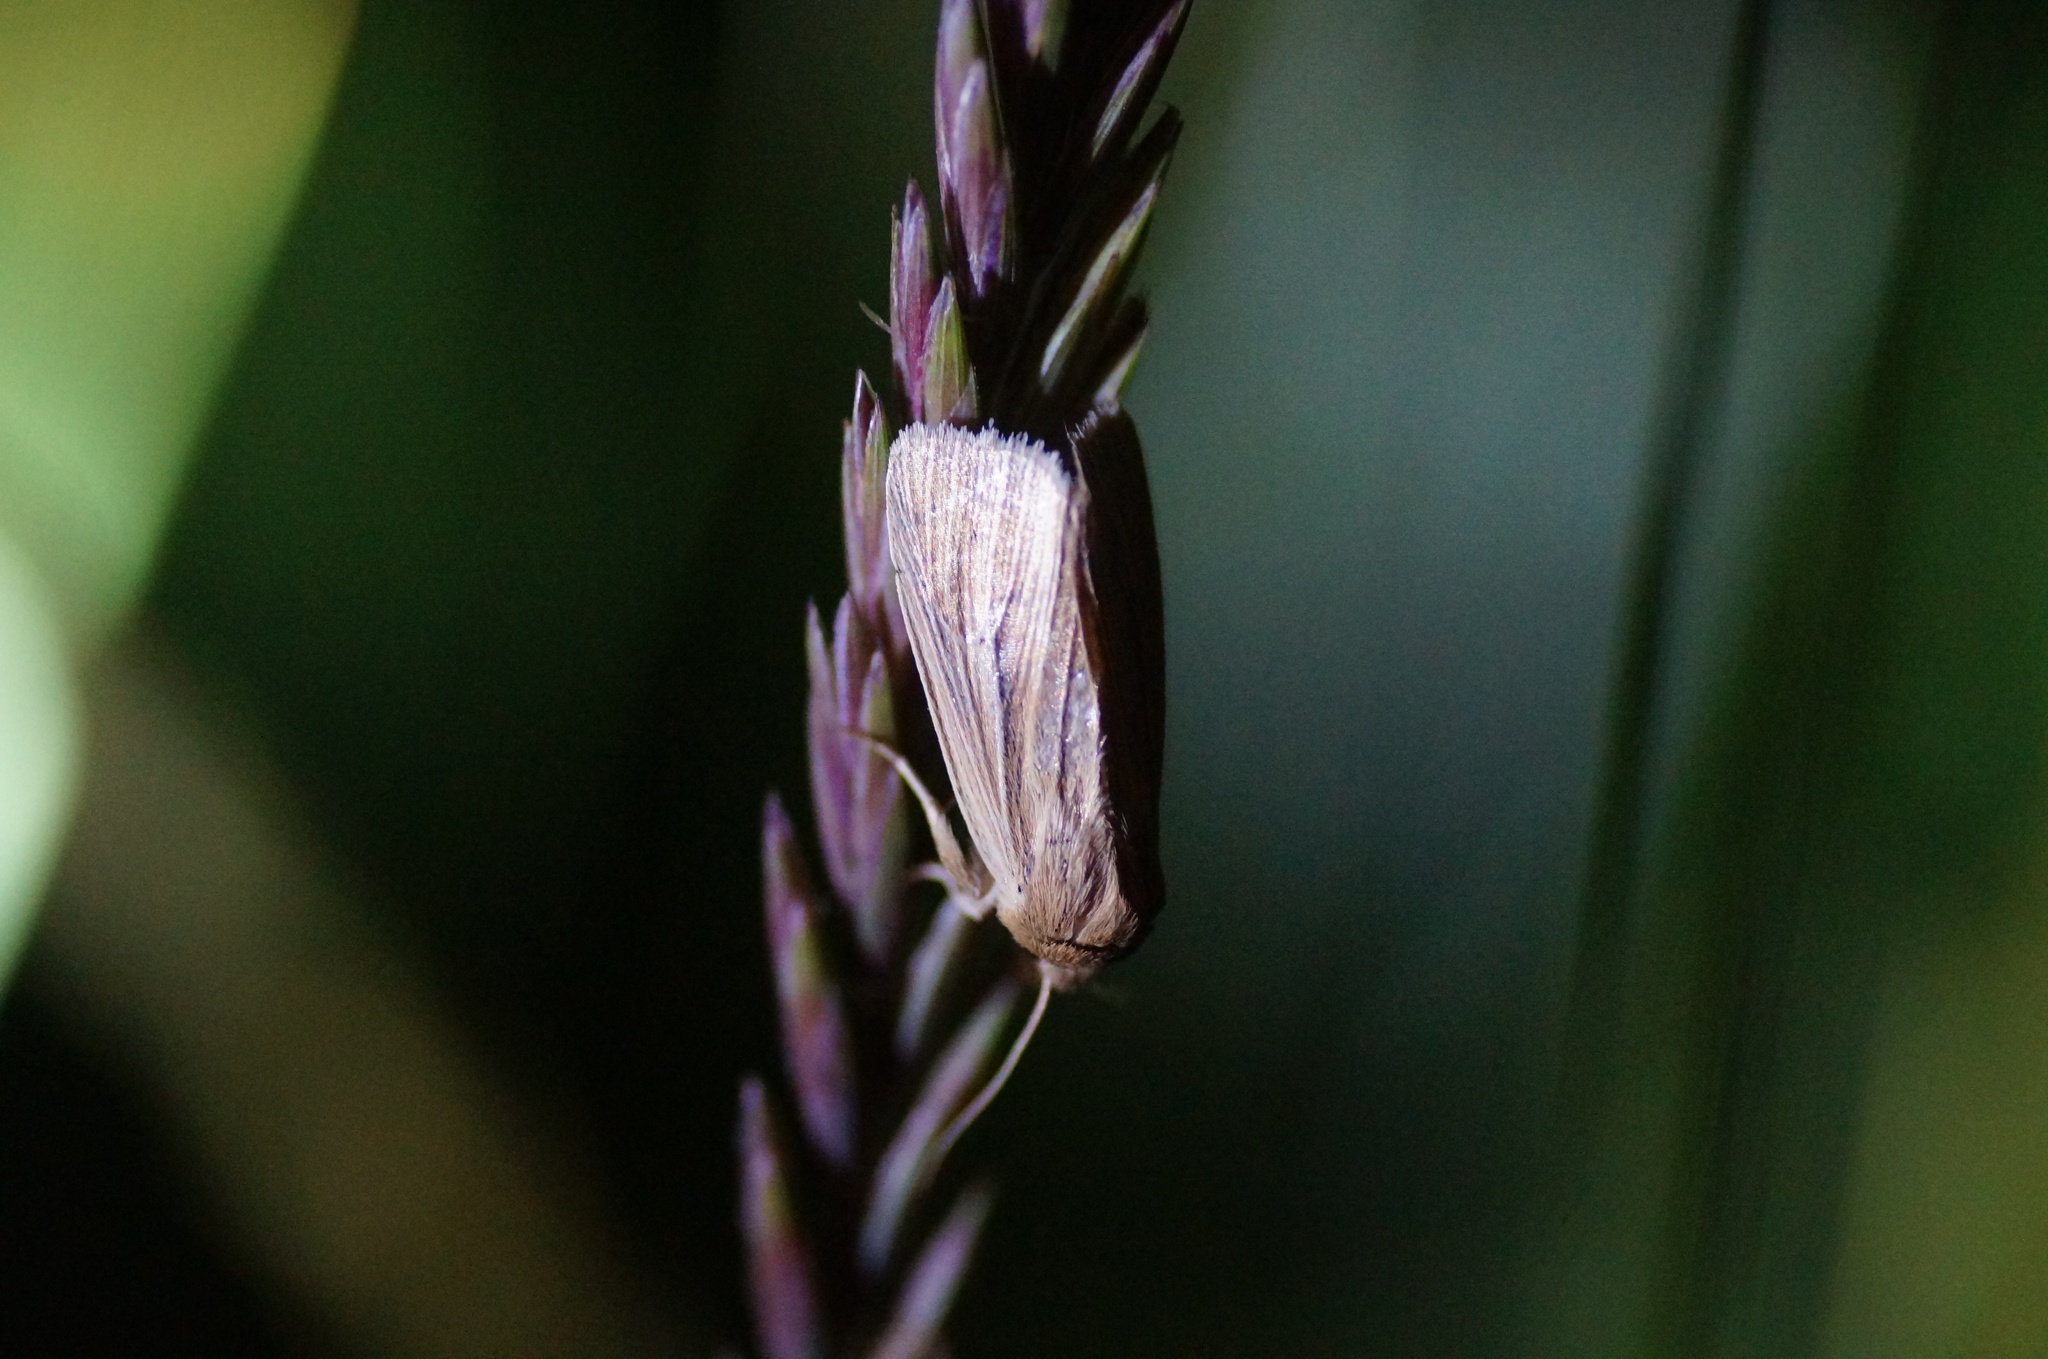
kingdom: Animalia
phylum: Arthropoda
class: Insecta
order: Lepidoptera
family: Noctuidae
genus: Mythimna
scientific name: Mythimna impura
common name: Smoky wainscot
